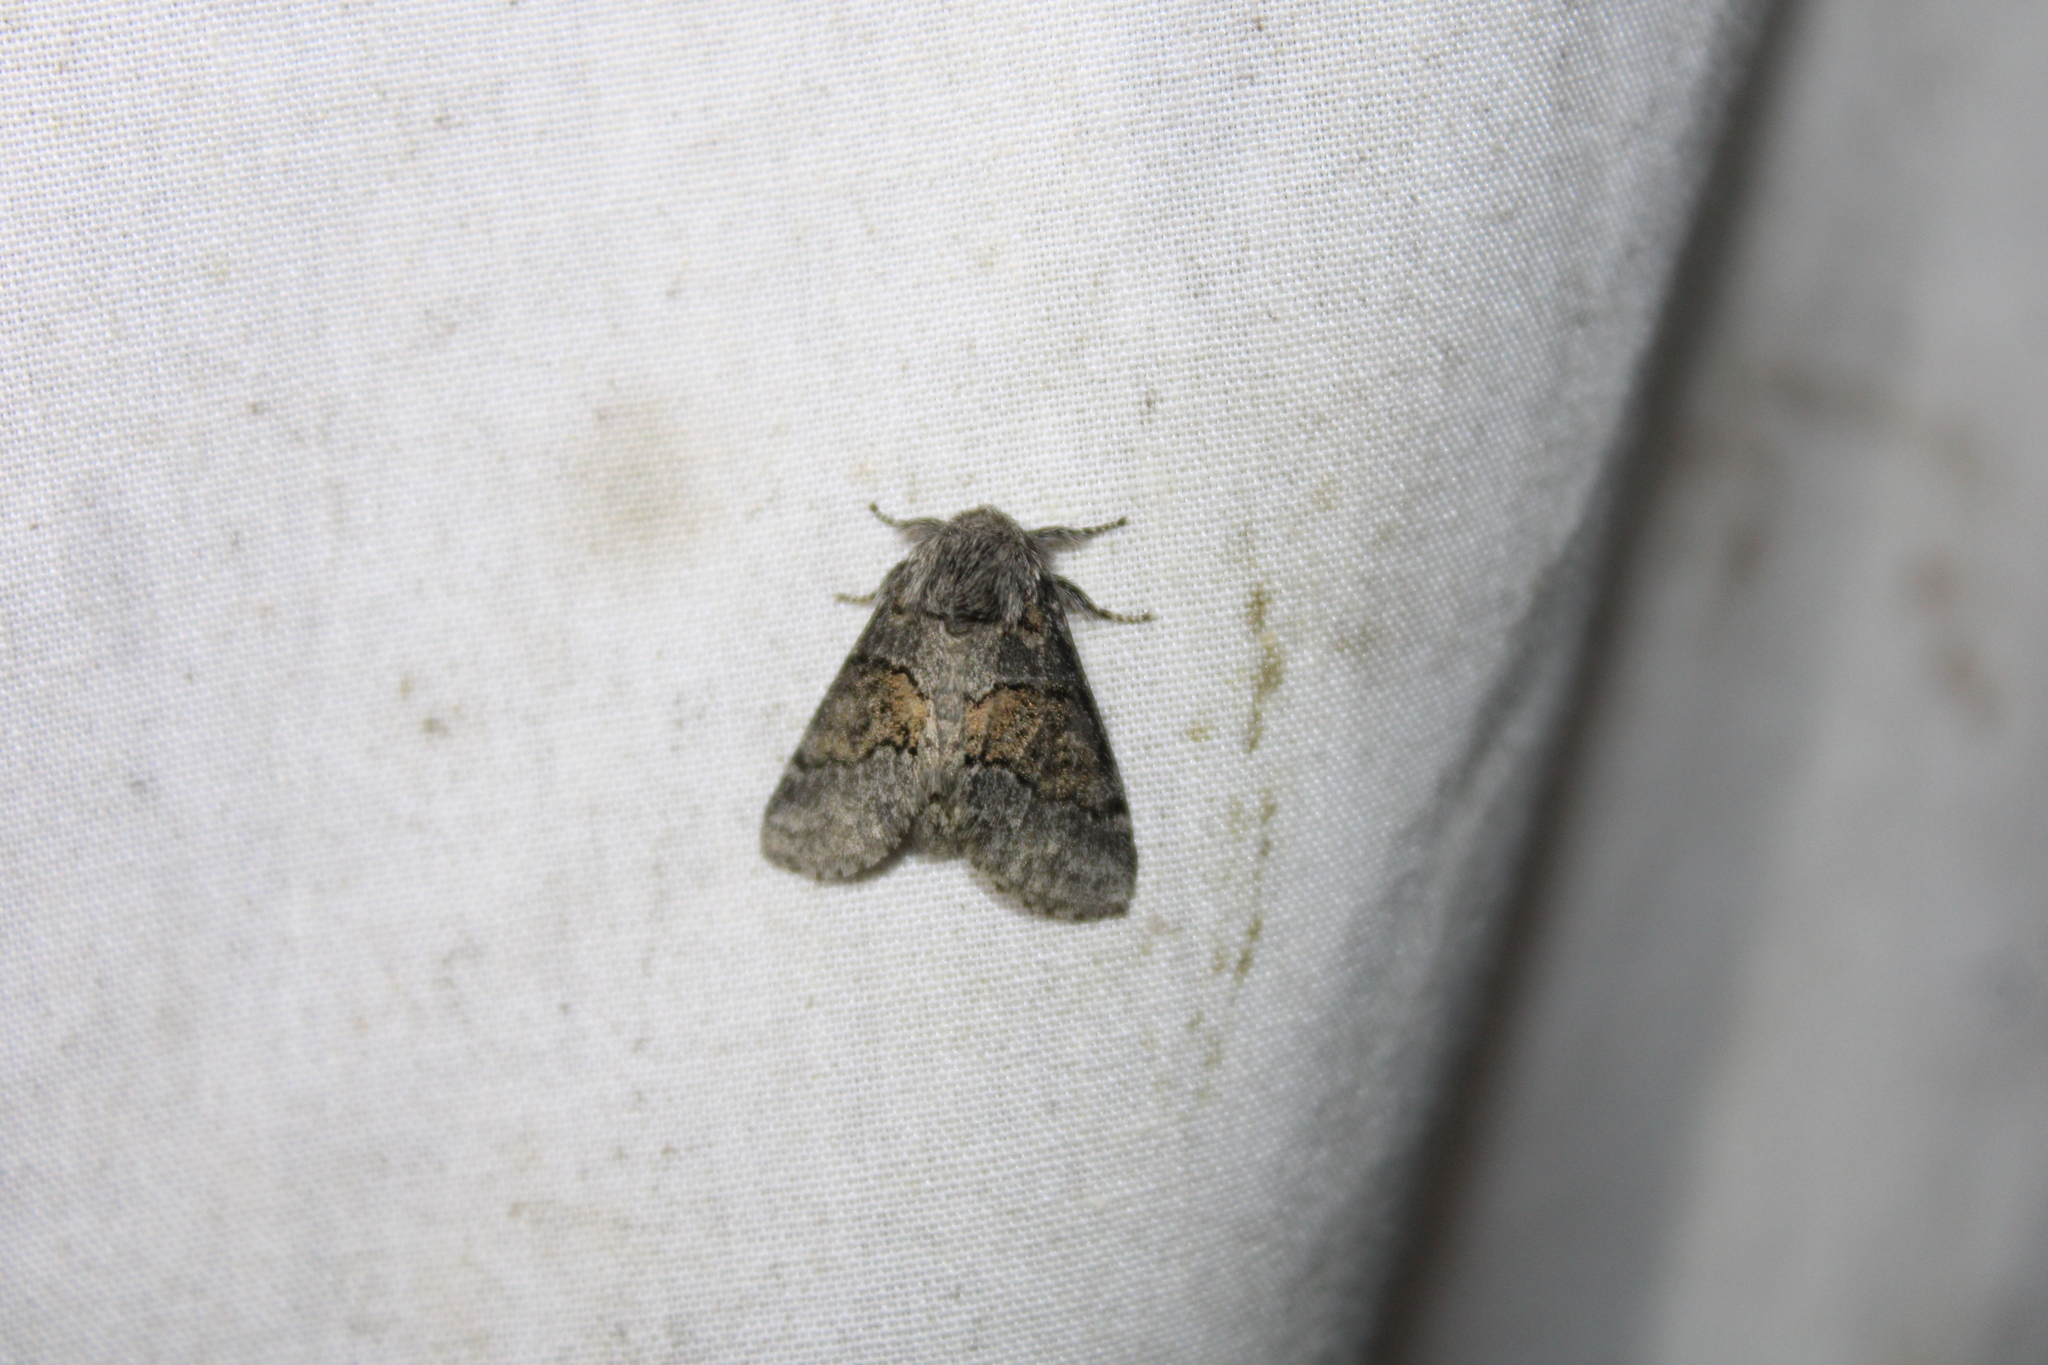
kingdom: Animalia
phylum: Arthropoda
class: Insecta
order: Lepidoptera
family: Notodontidae
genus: Gluphisia
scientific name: Gluphisia septentrionis
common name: Common gluphisia
